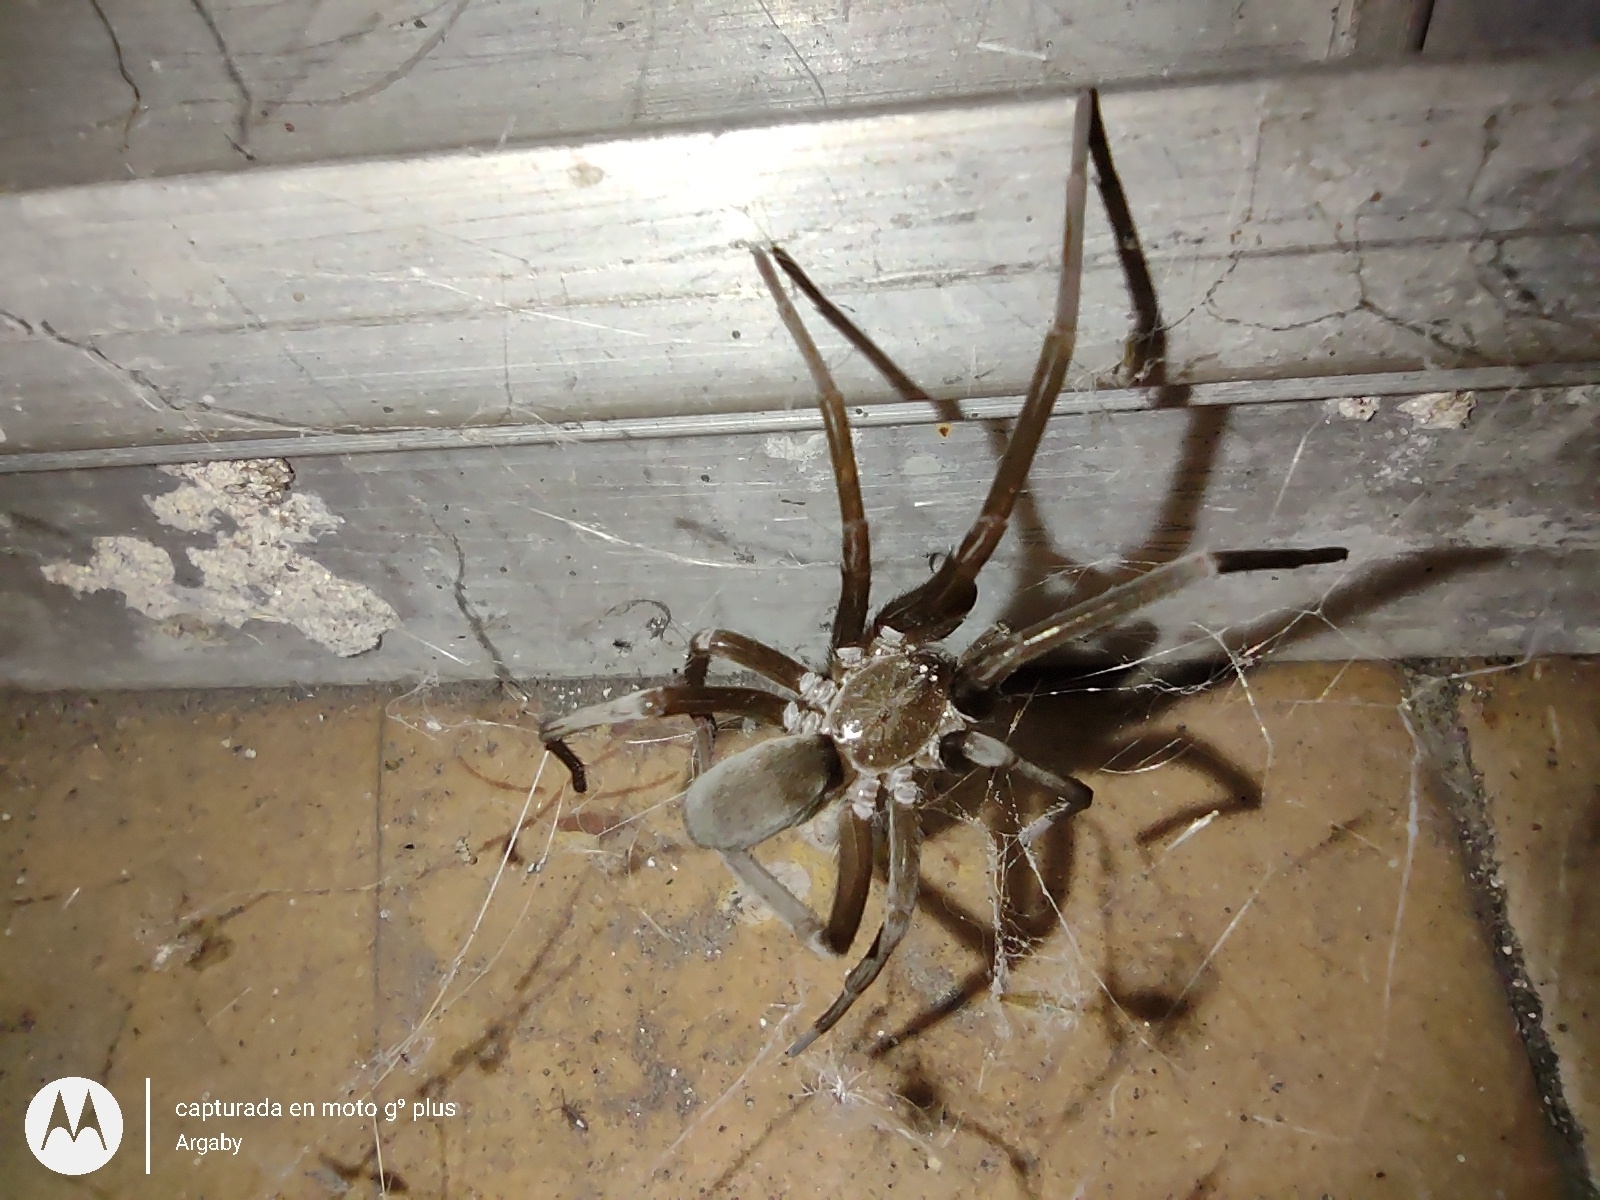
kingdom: Animalia
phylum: Arthropoda
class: Arachnida
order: Araneae
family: Filistatidae
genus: Kukulcania
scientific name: Kukulcania hibernalis
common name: Crevice weaver
